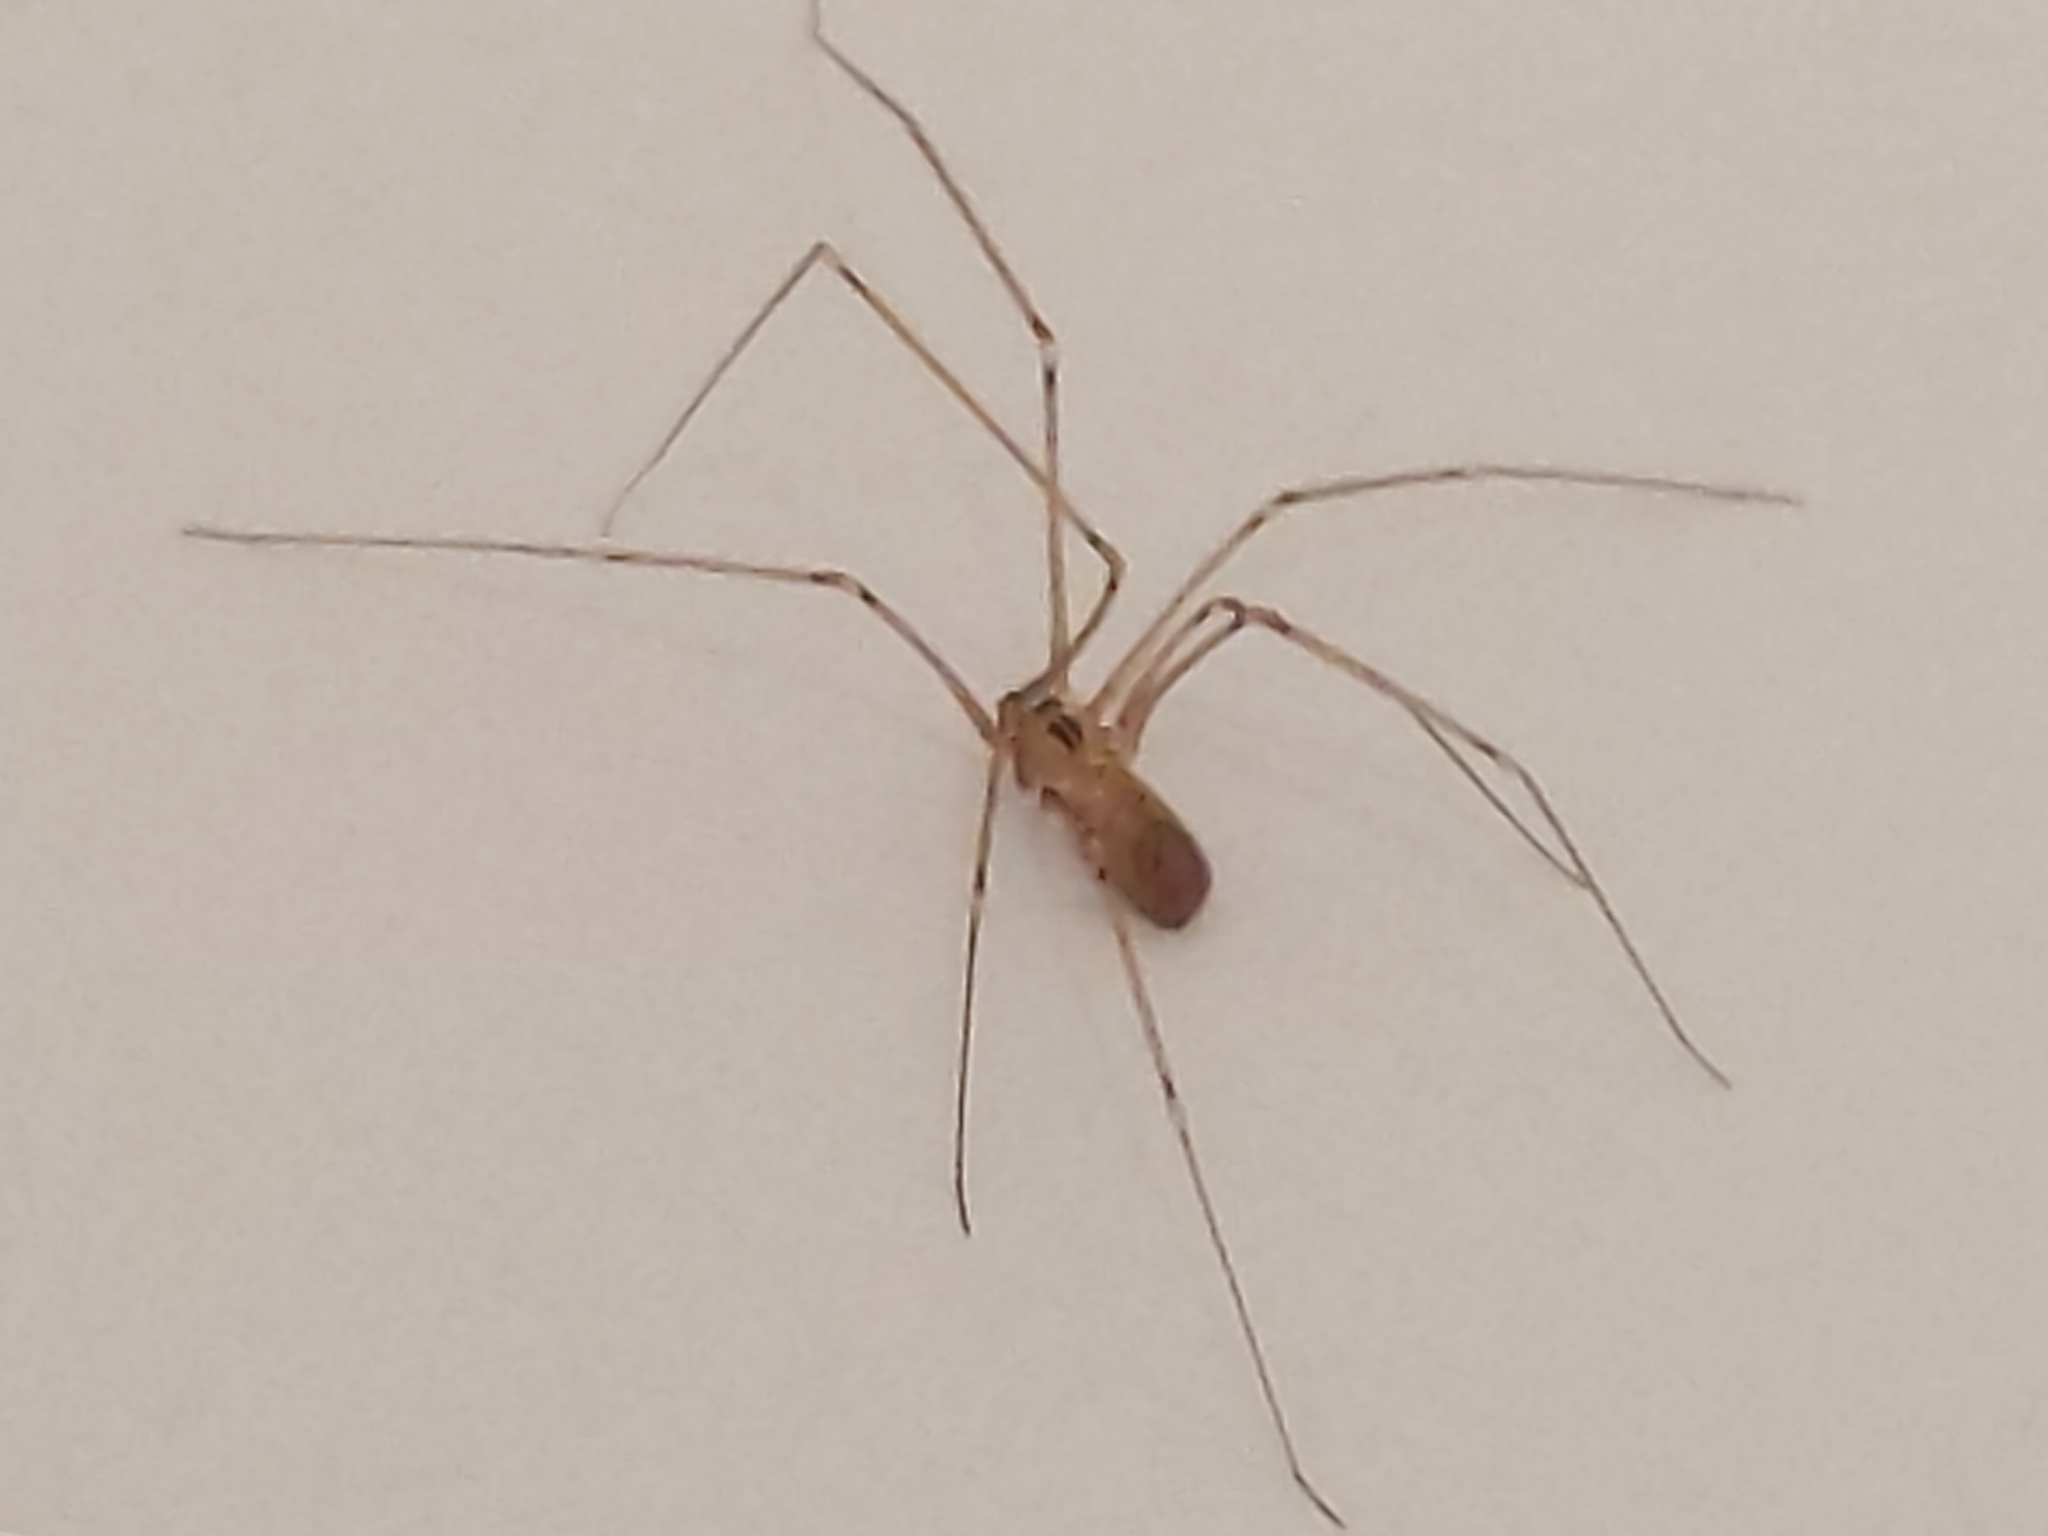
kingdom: Animalia
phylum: Arthropoda
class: Arachnida
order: Araneae
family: Pholcidae
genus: Pholcus
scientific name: Pholcus manueli
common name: Cellar spider
